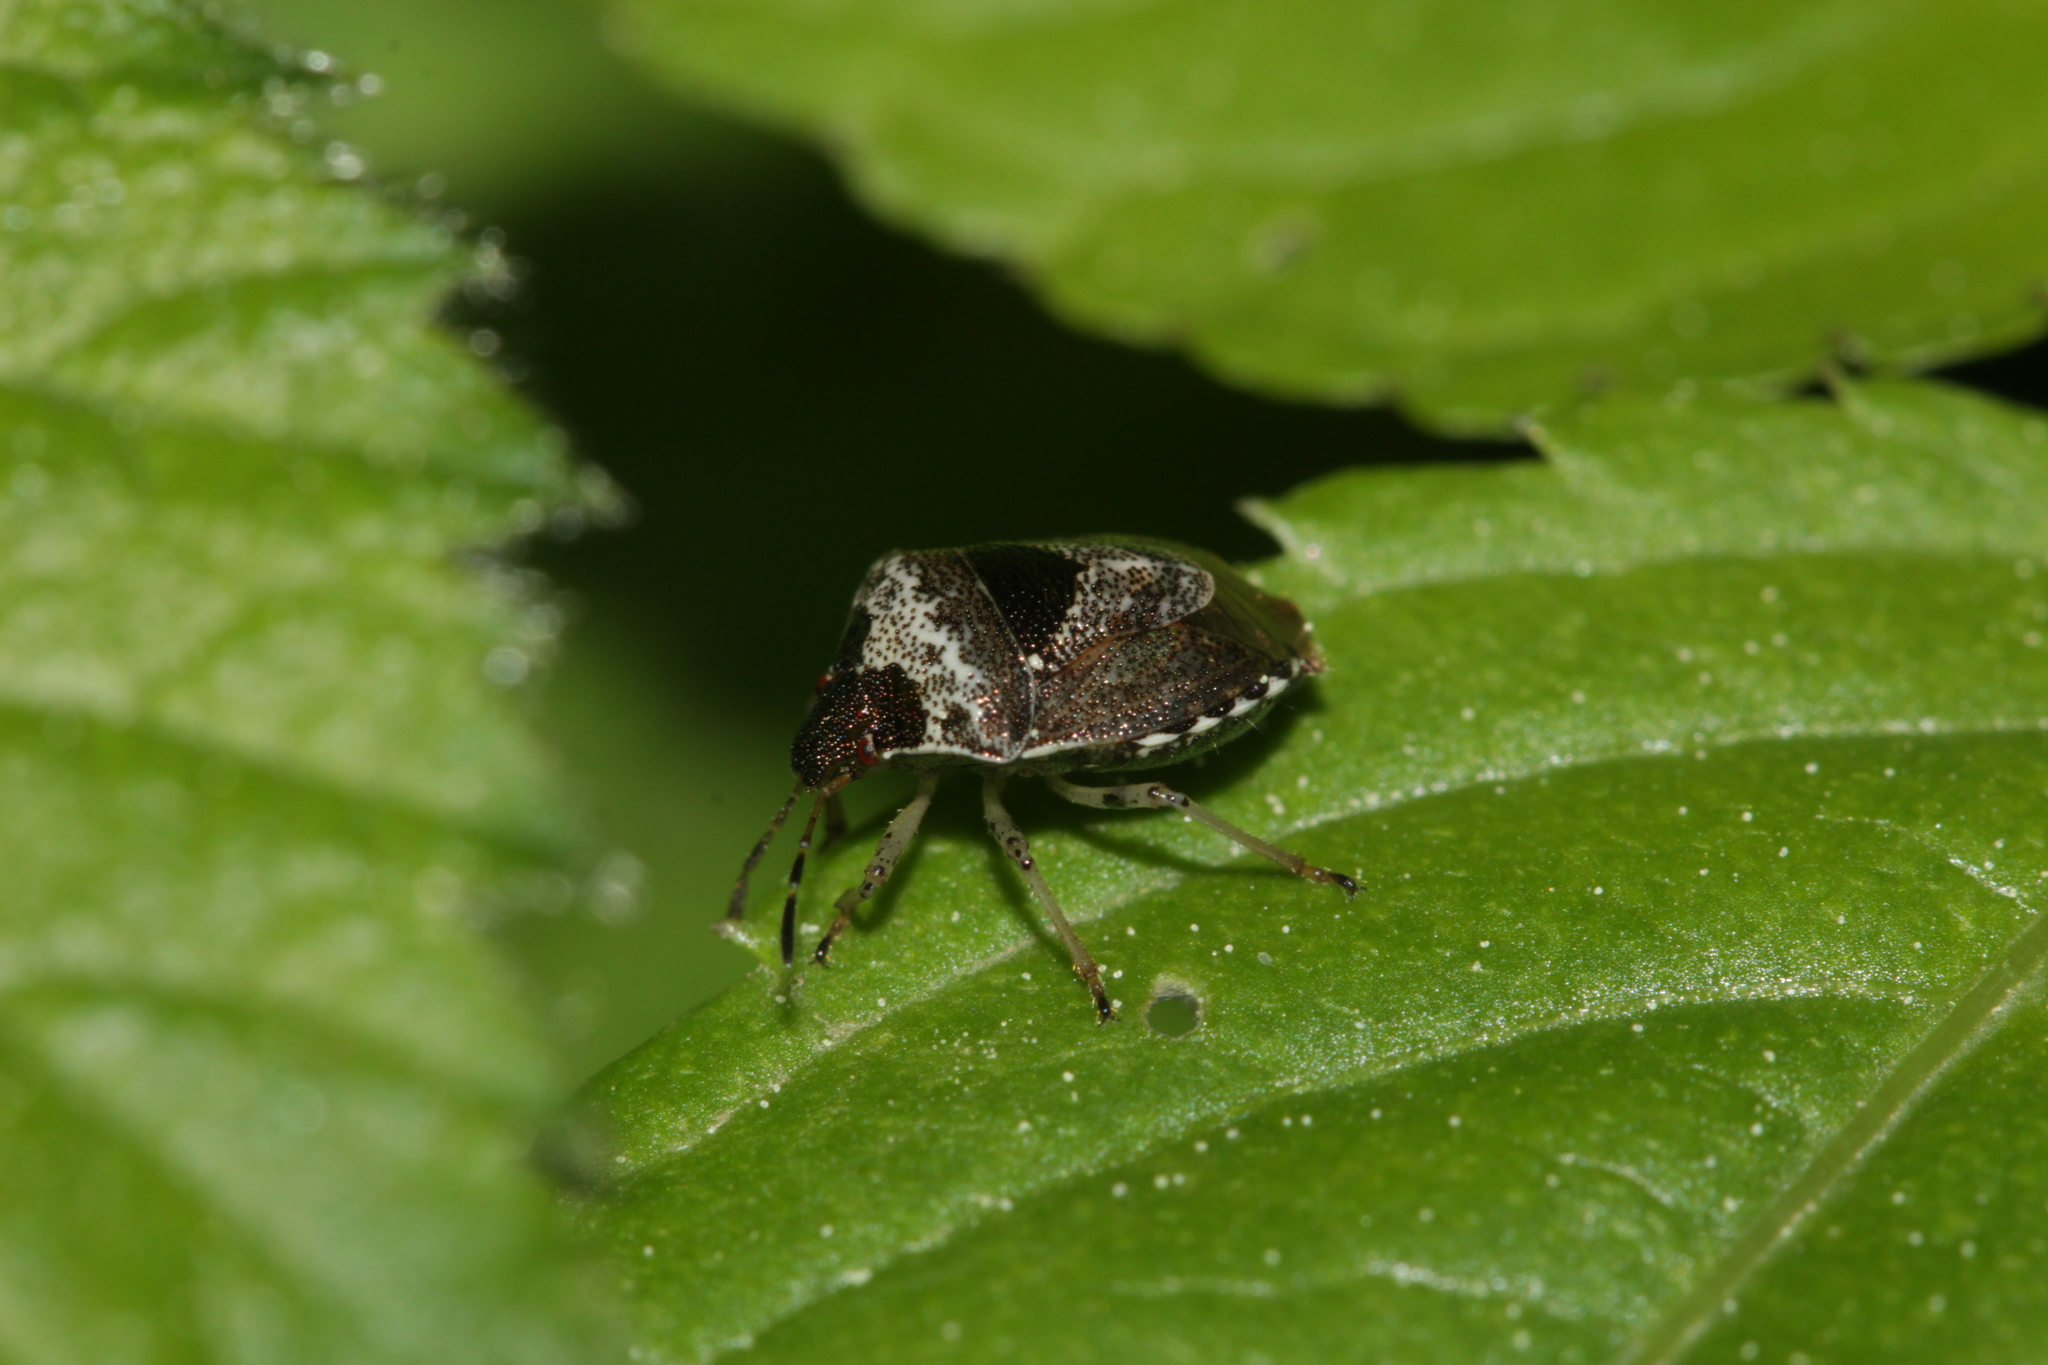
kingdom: Animalia
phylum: Arthropoda
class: Insecta
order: Hemiptera
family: Pentatomidae
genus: Eysarcoris
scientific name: Eysarcoris venustissimus
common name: Woundwort shieldbug
